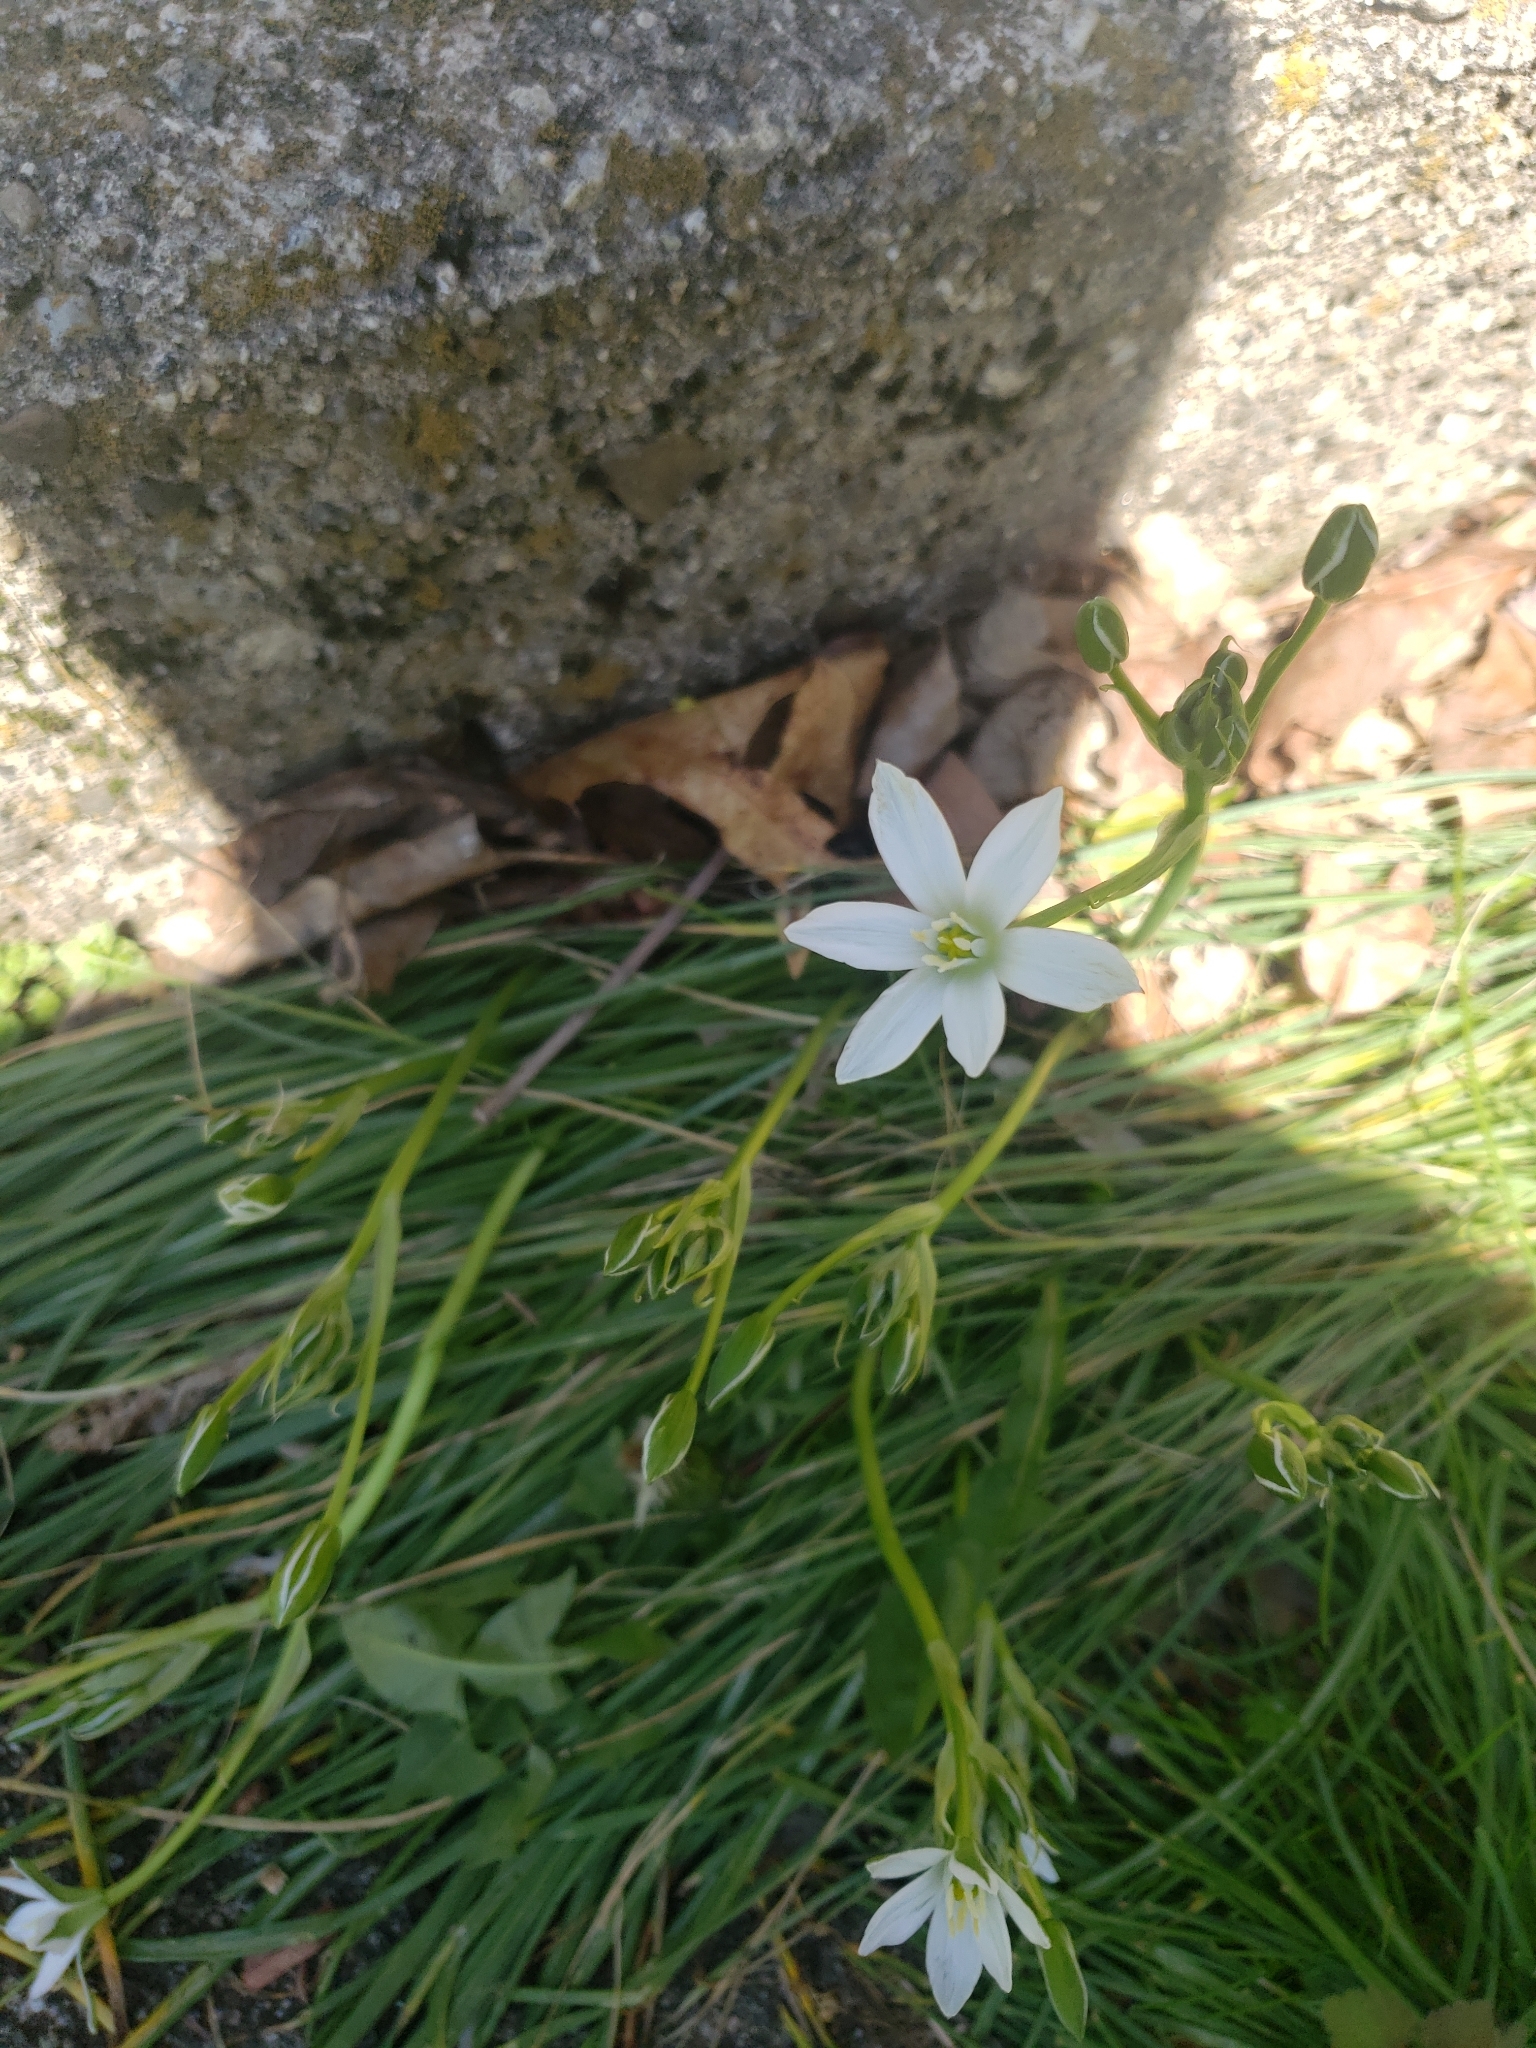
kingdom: Plantae
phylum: Tracheophyta
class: Liliopsida
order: Asparagales
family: Asparagaceae
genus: Ornithogalum
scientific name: Ornithogalum umbellatum
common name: Garden star-of-bethlehem
